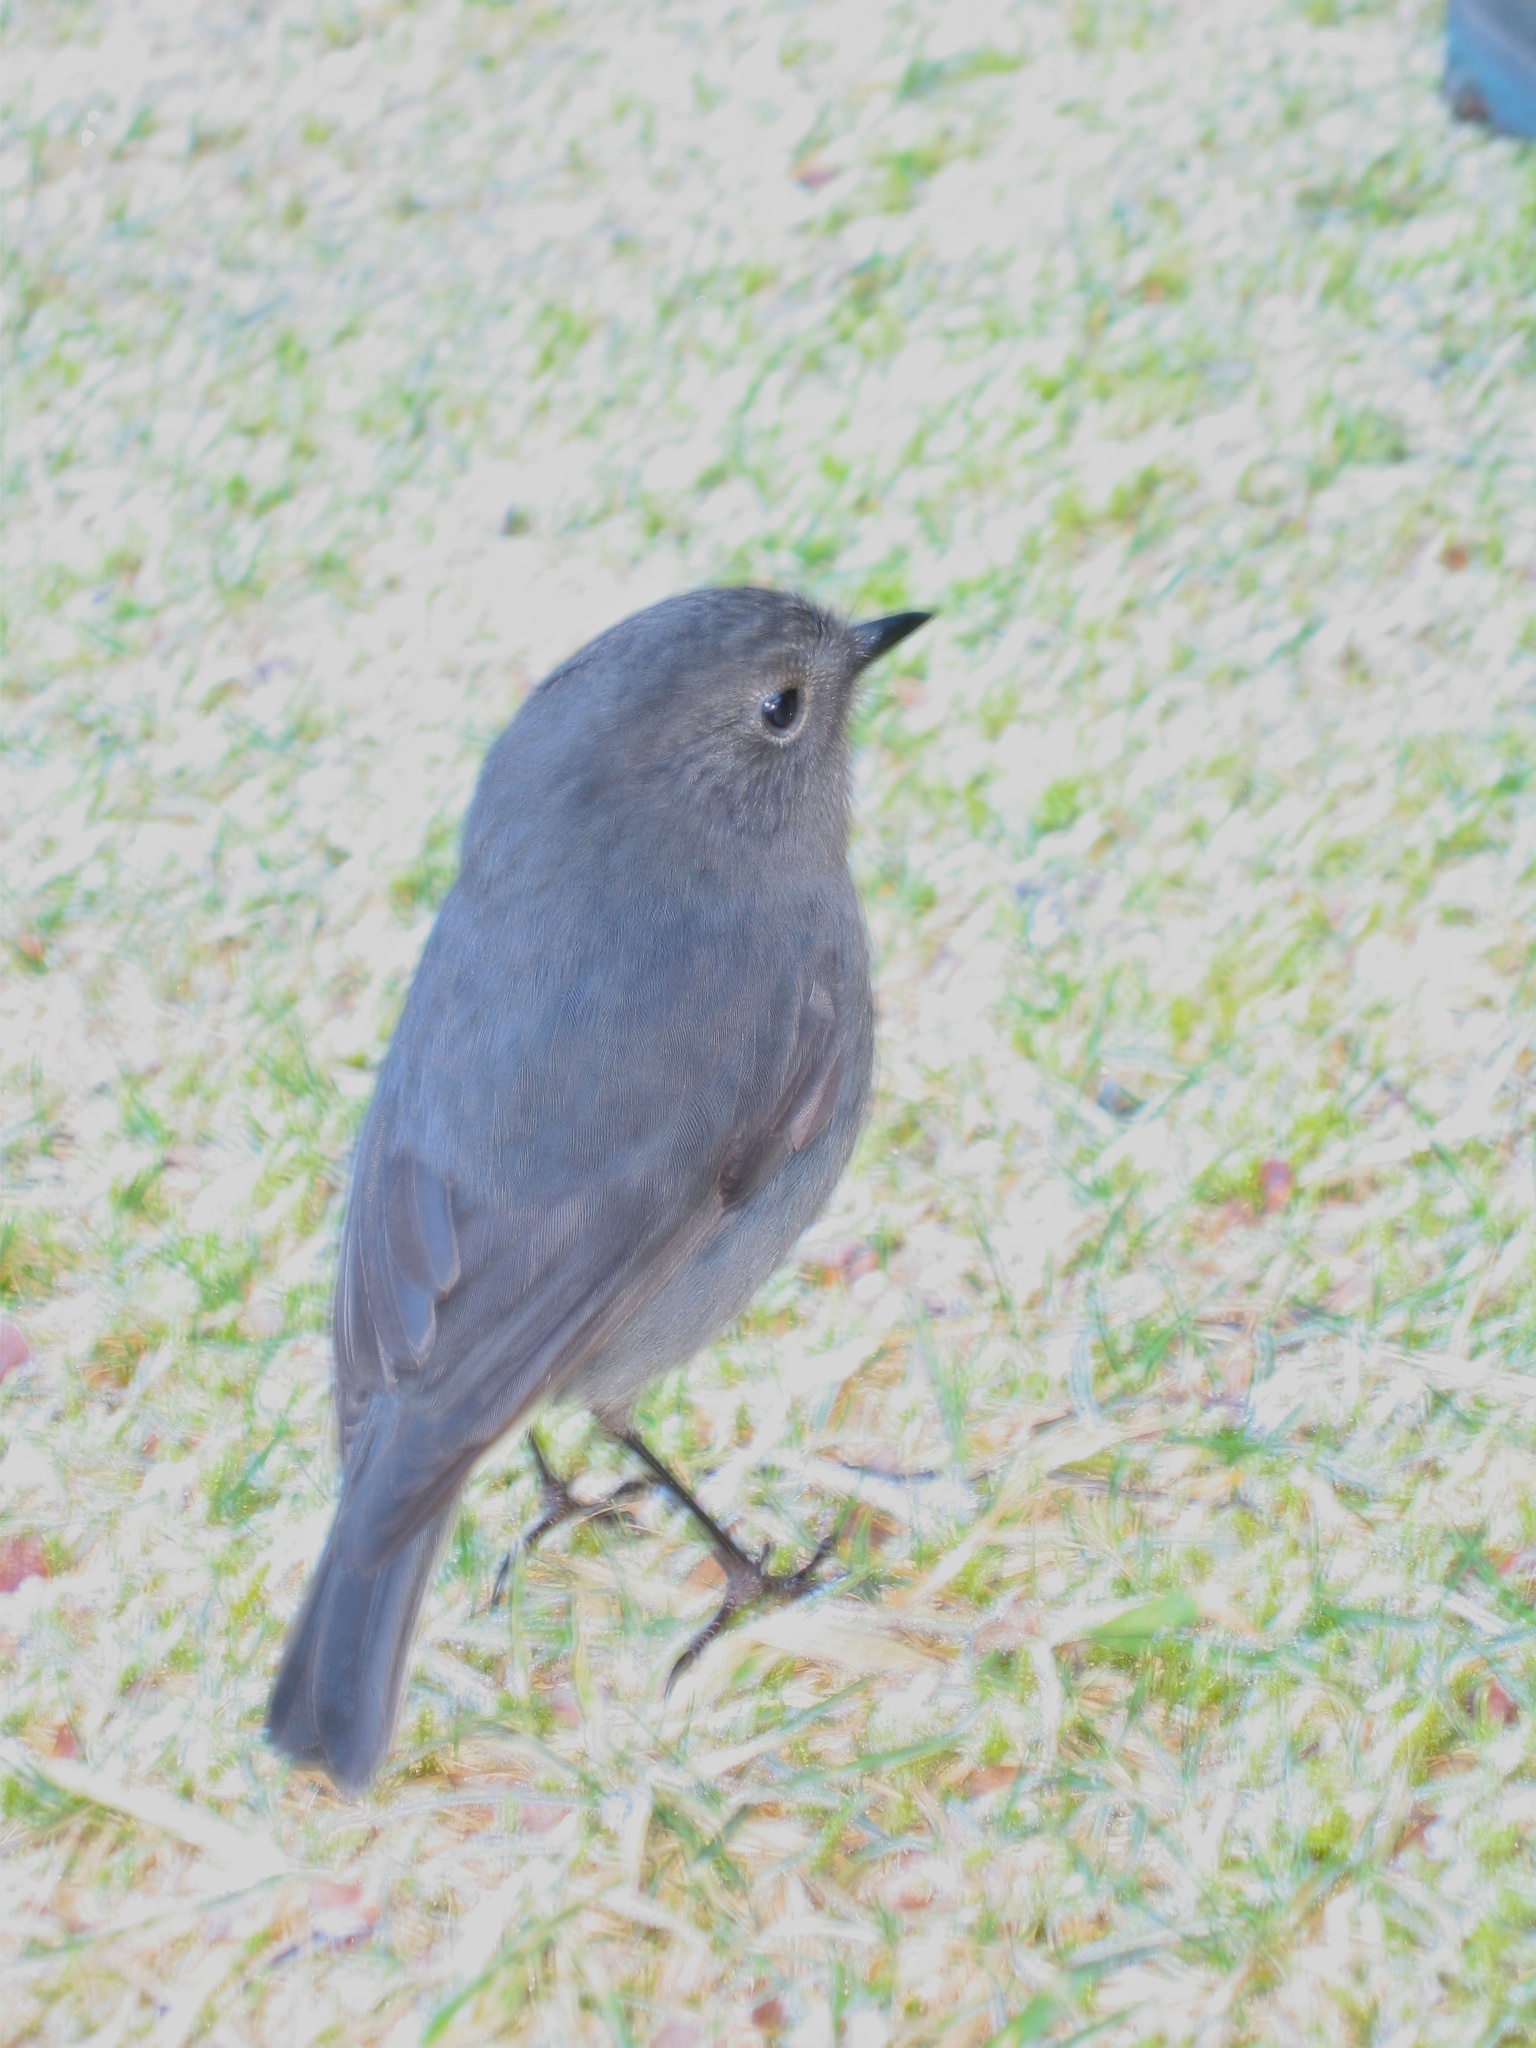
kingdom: Animalia
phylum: Chordata
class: Aves
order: Passeriformes
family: Petroicidae
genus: Petroica
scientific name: Petroica australis
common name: New zealand robin
